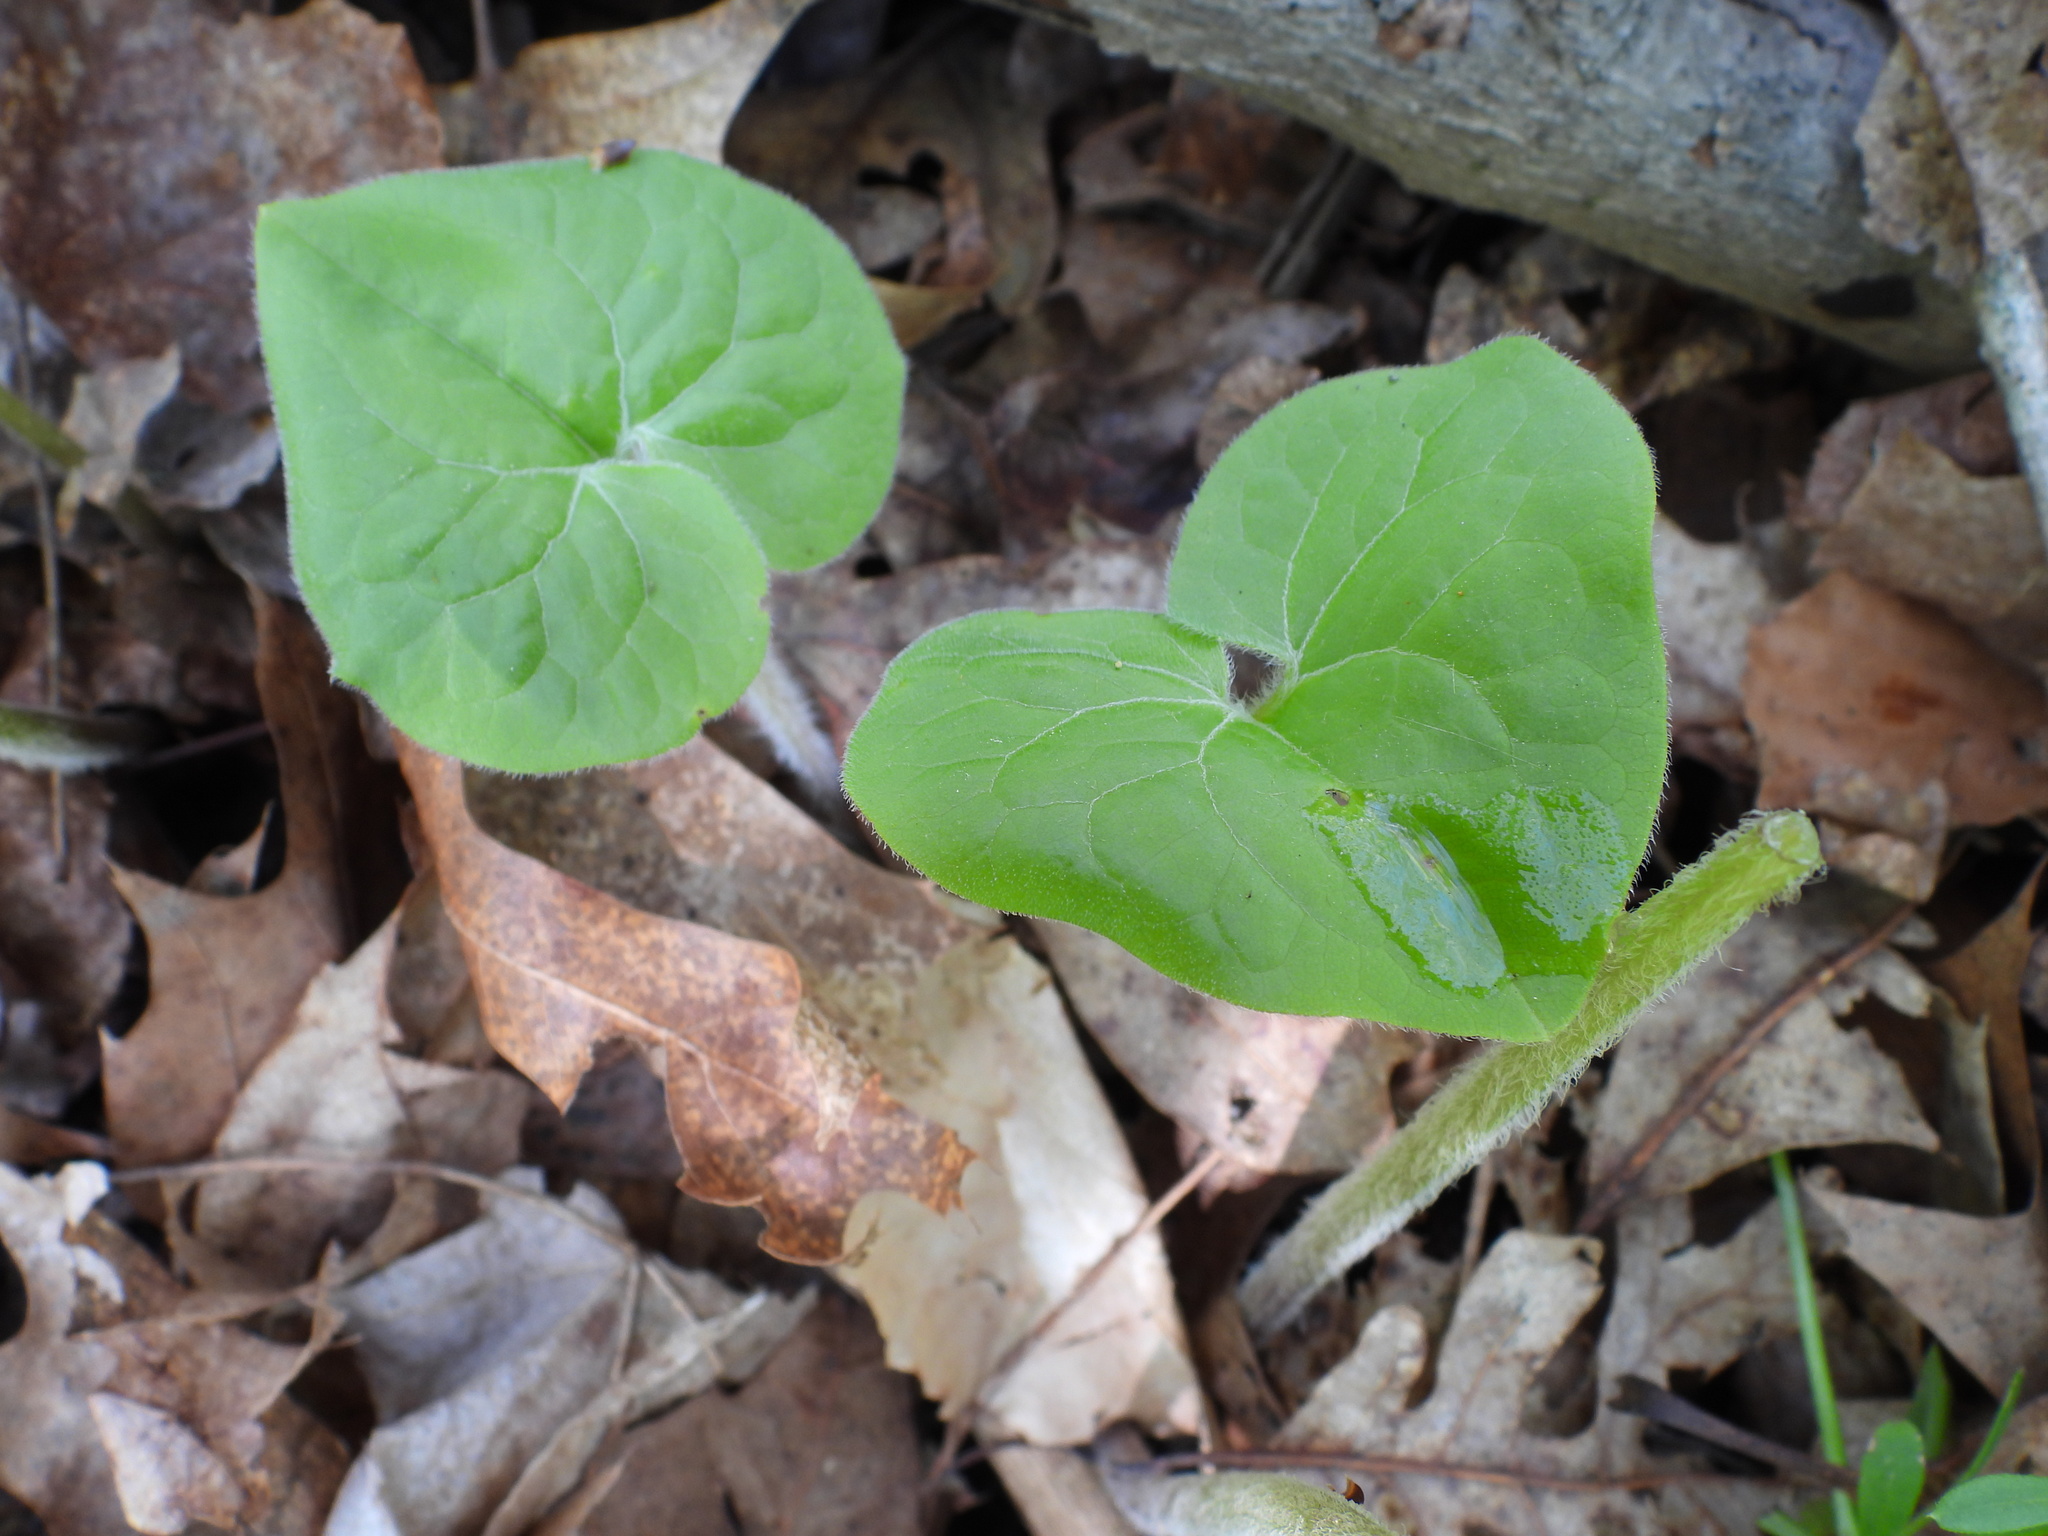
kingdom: Plantae
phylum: Tracheophyta
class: Magnoliopsida
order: Piperales
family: Aristolochiaceae
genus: Asarum
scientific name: Asarum canadense
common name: Wild ginger
